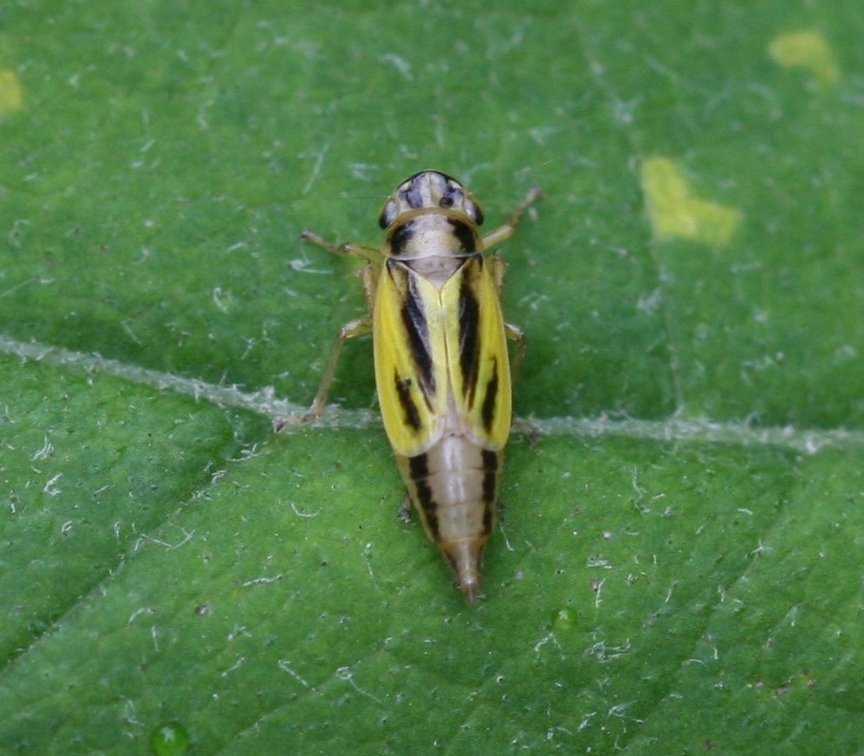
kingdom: Animalia
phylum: Arthropoda
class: Insecta
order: Hemiptera
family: Cicadellidae
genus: Evacanthus
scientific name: Evacanthus interruptus
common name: Leafhopper
